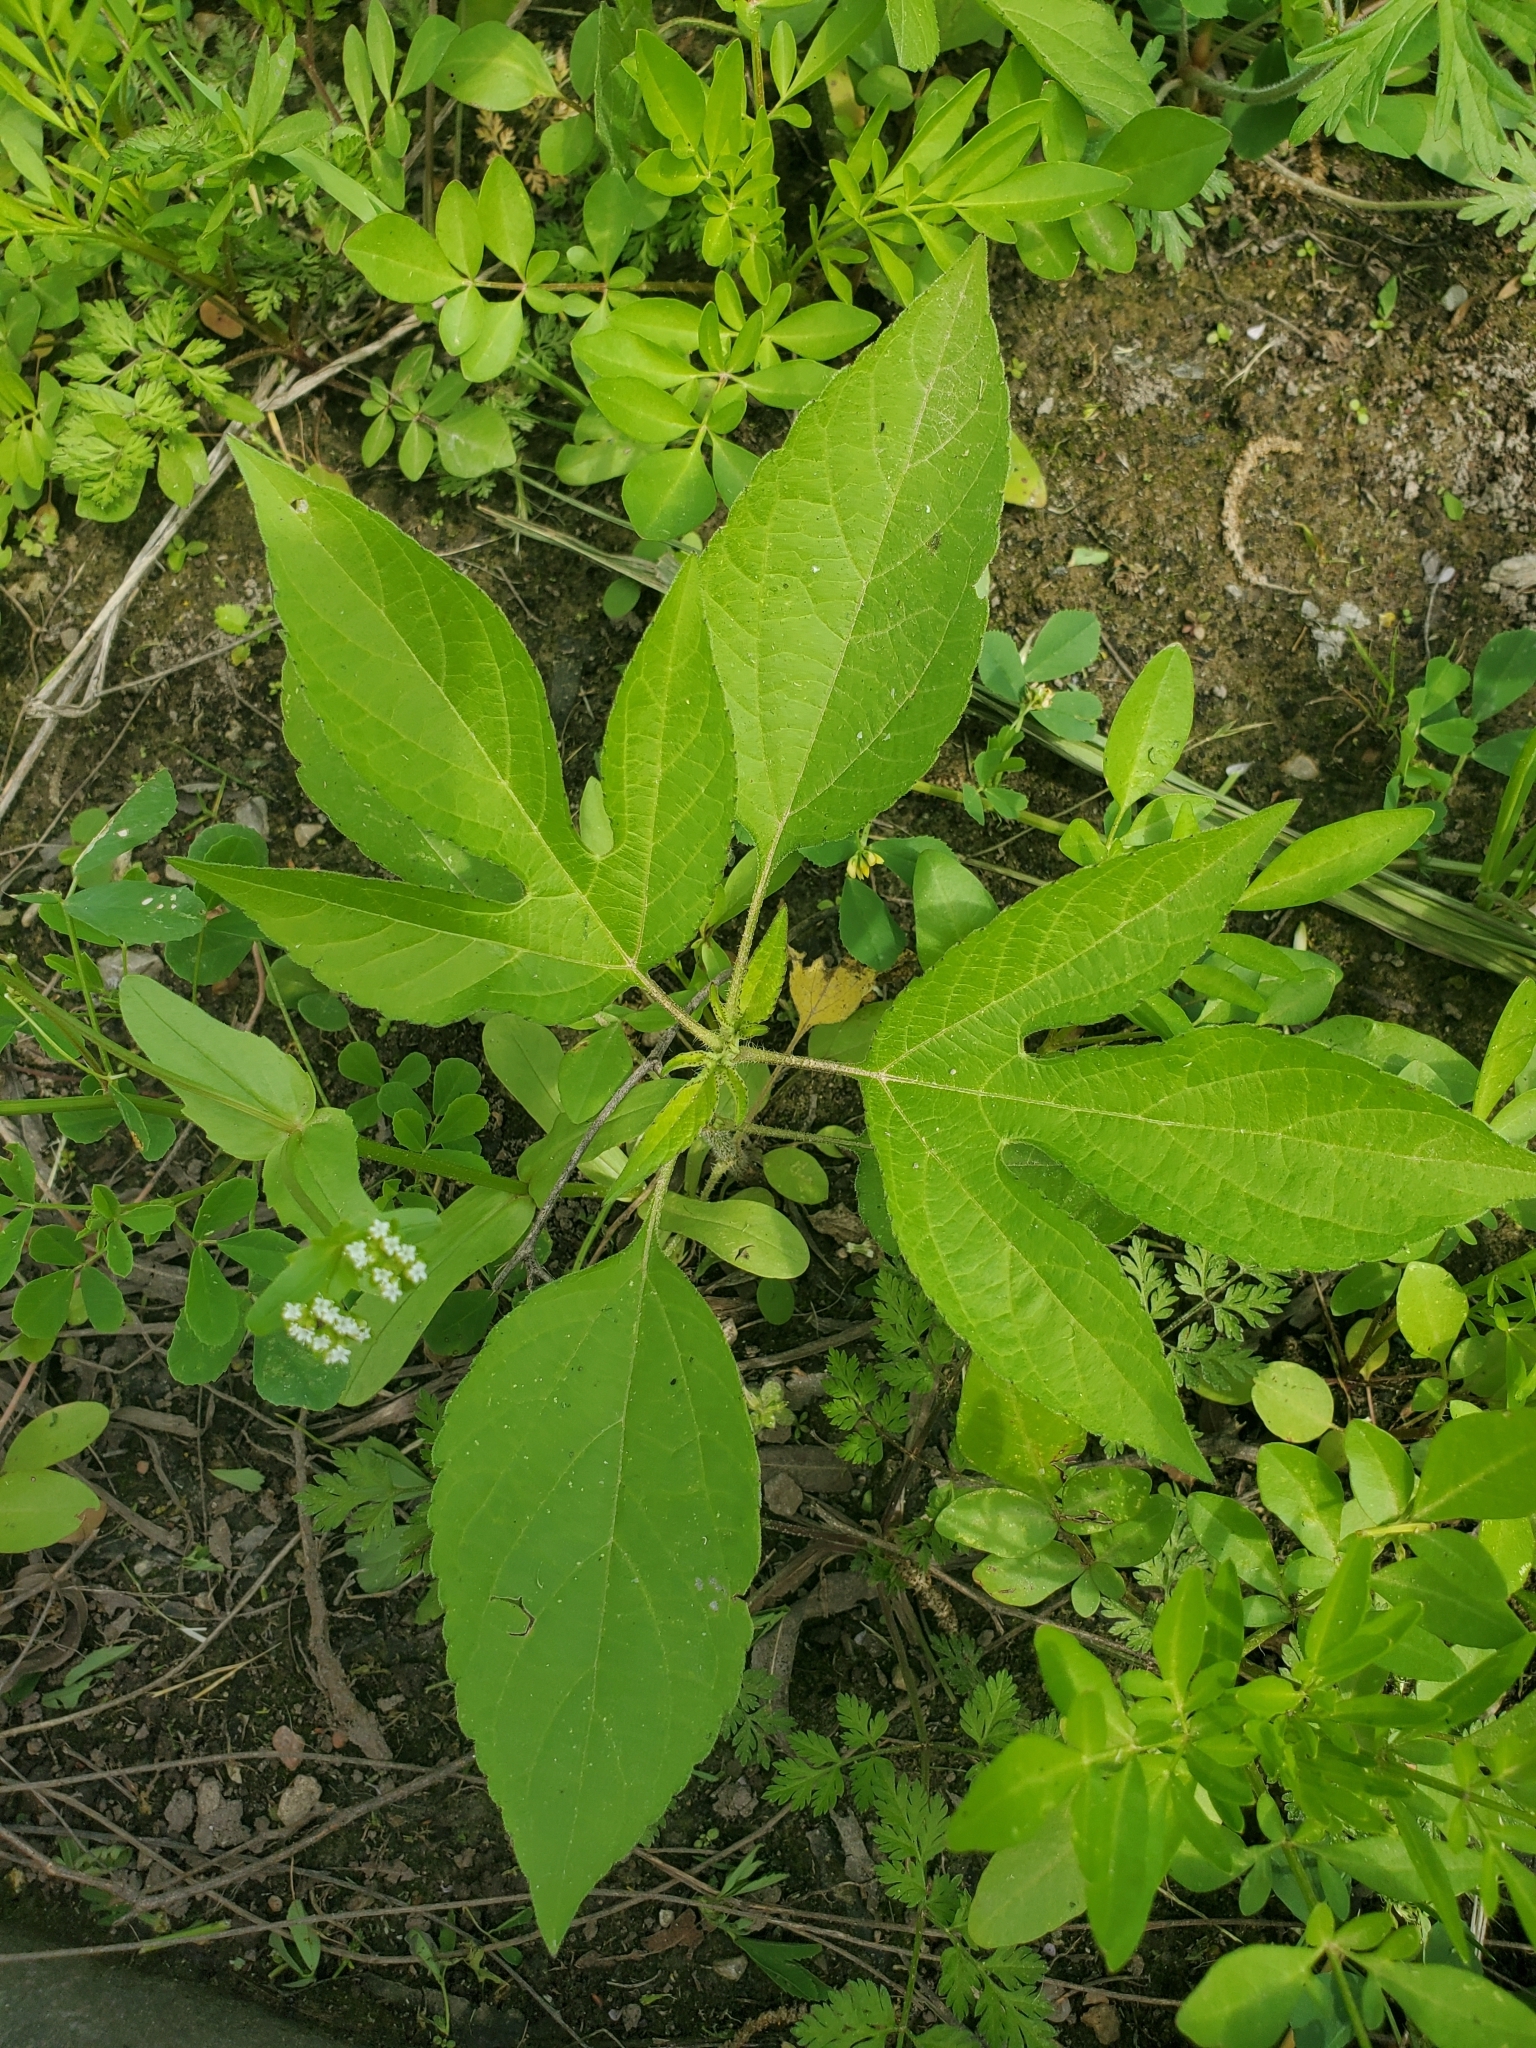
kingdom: Plantae
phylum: Tracheophyta
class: Magnoliopsida
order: Asterales
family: Asteraceae
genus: Ambrosia
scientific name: Ambrosia trifida
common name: Giant ragweed
